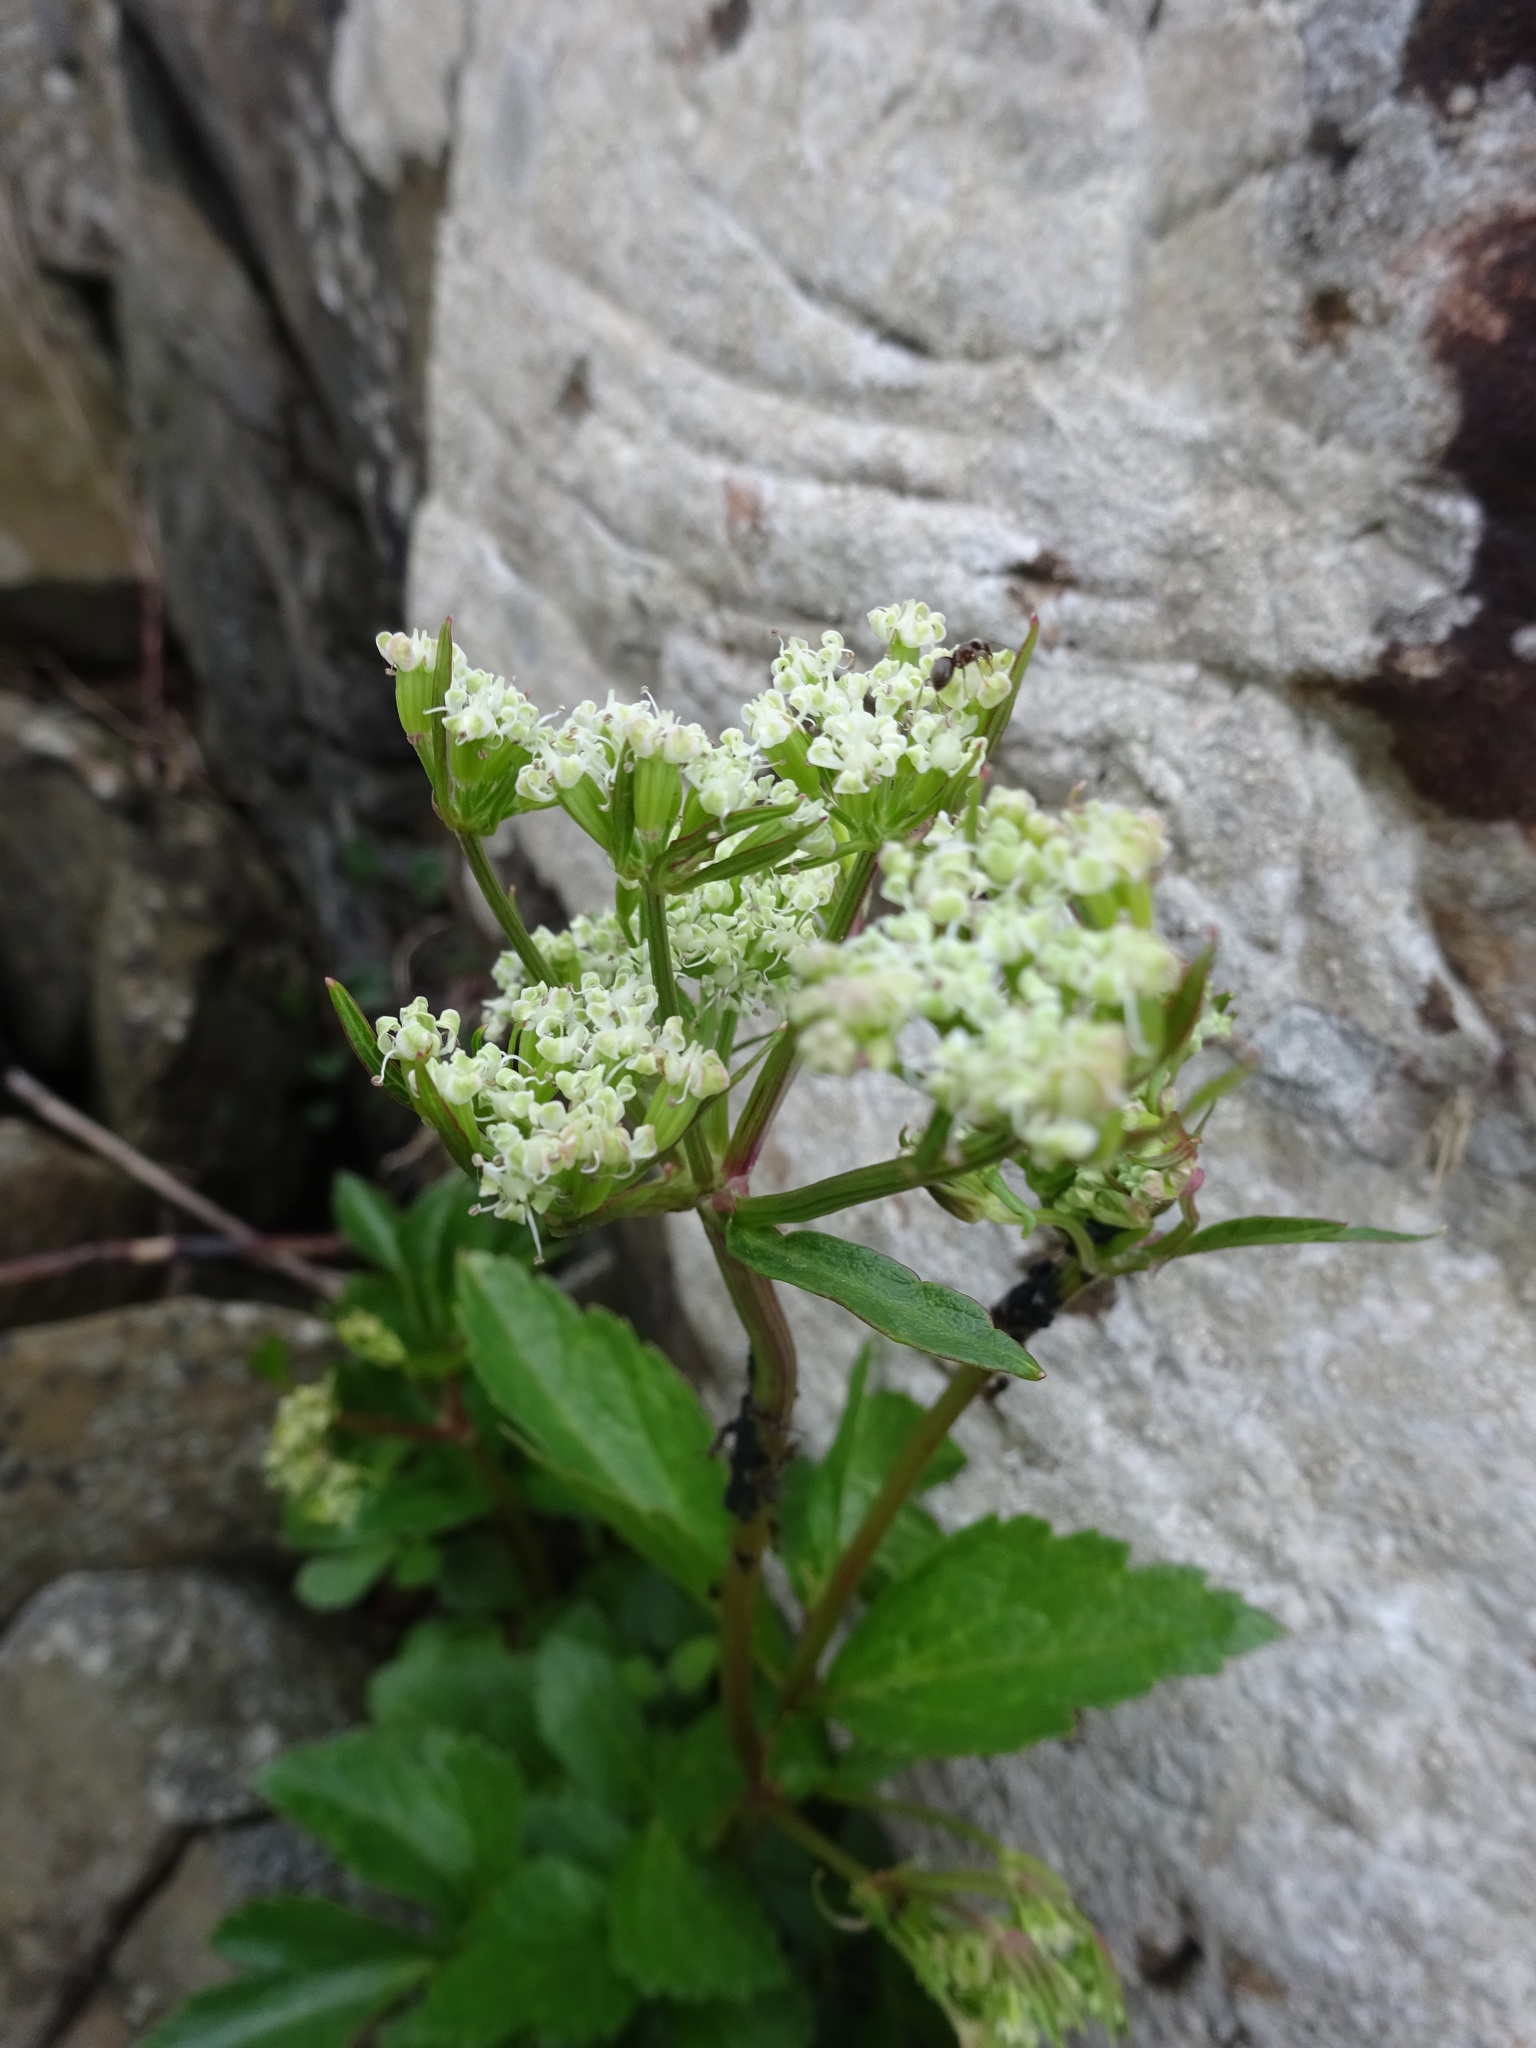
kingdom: Plantae
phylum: Tracheophyta
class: Magnoliopsida
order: Apiales
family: Apiaceae
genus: Ligusticum
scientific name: Ligusticum scothicum
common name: Beach lovage
